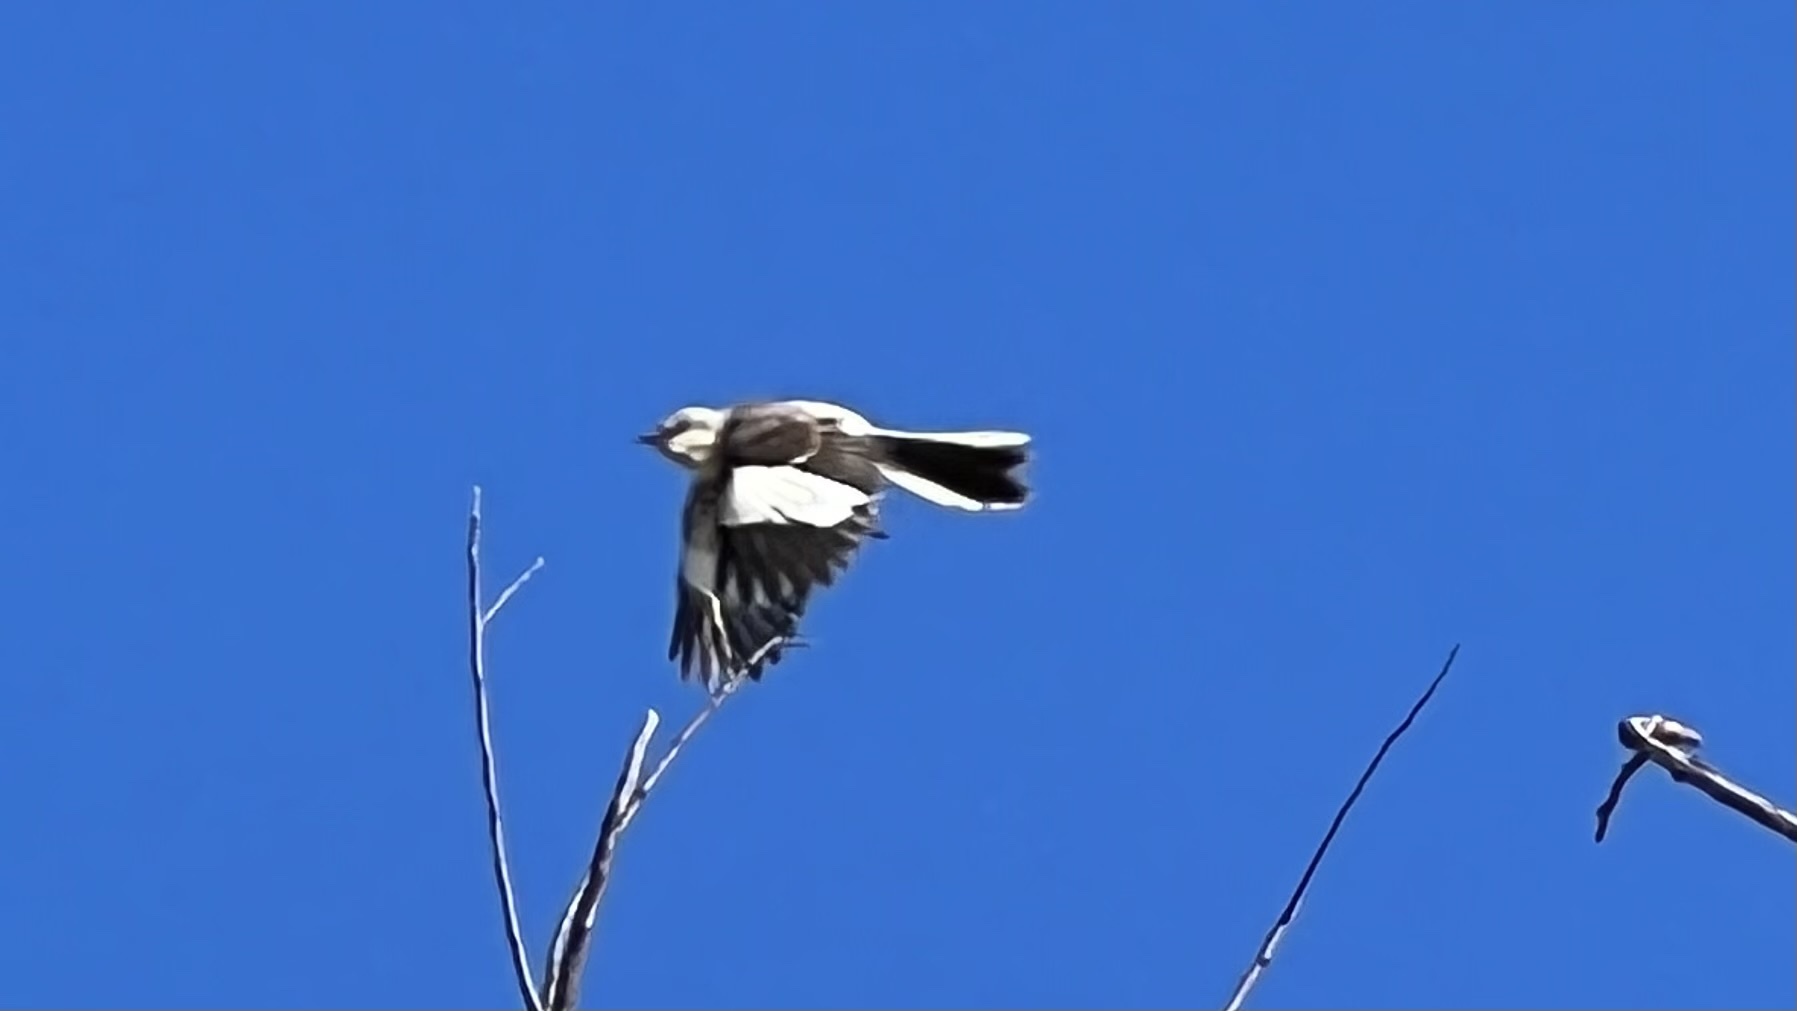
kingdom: Animalia
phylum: Chordata
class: Aves
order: Passeriformes
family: Mimidae
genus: Mimus
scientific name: Mimus polyglottos
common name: Northern mockingbird
